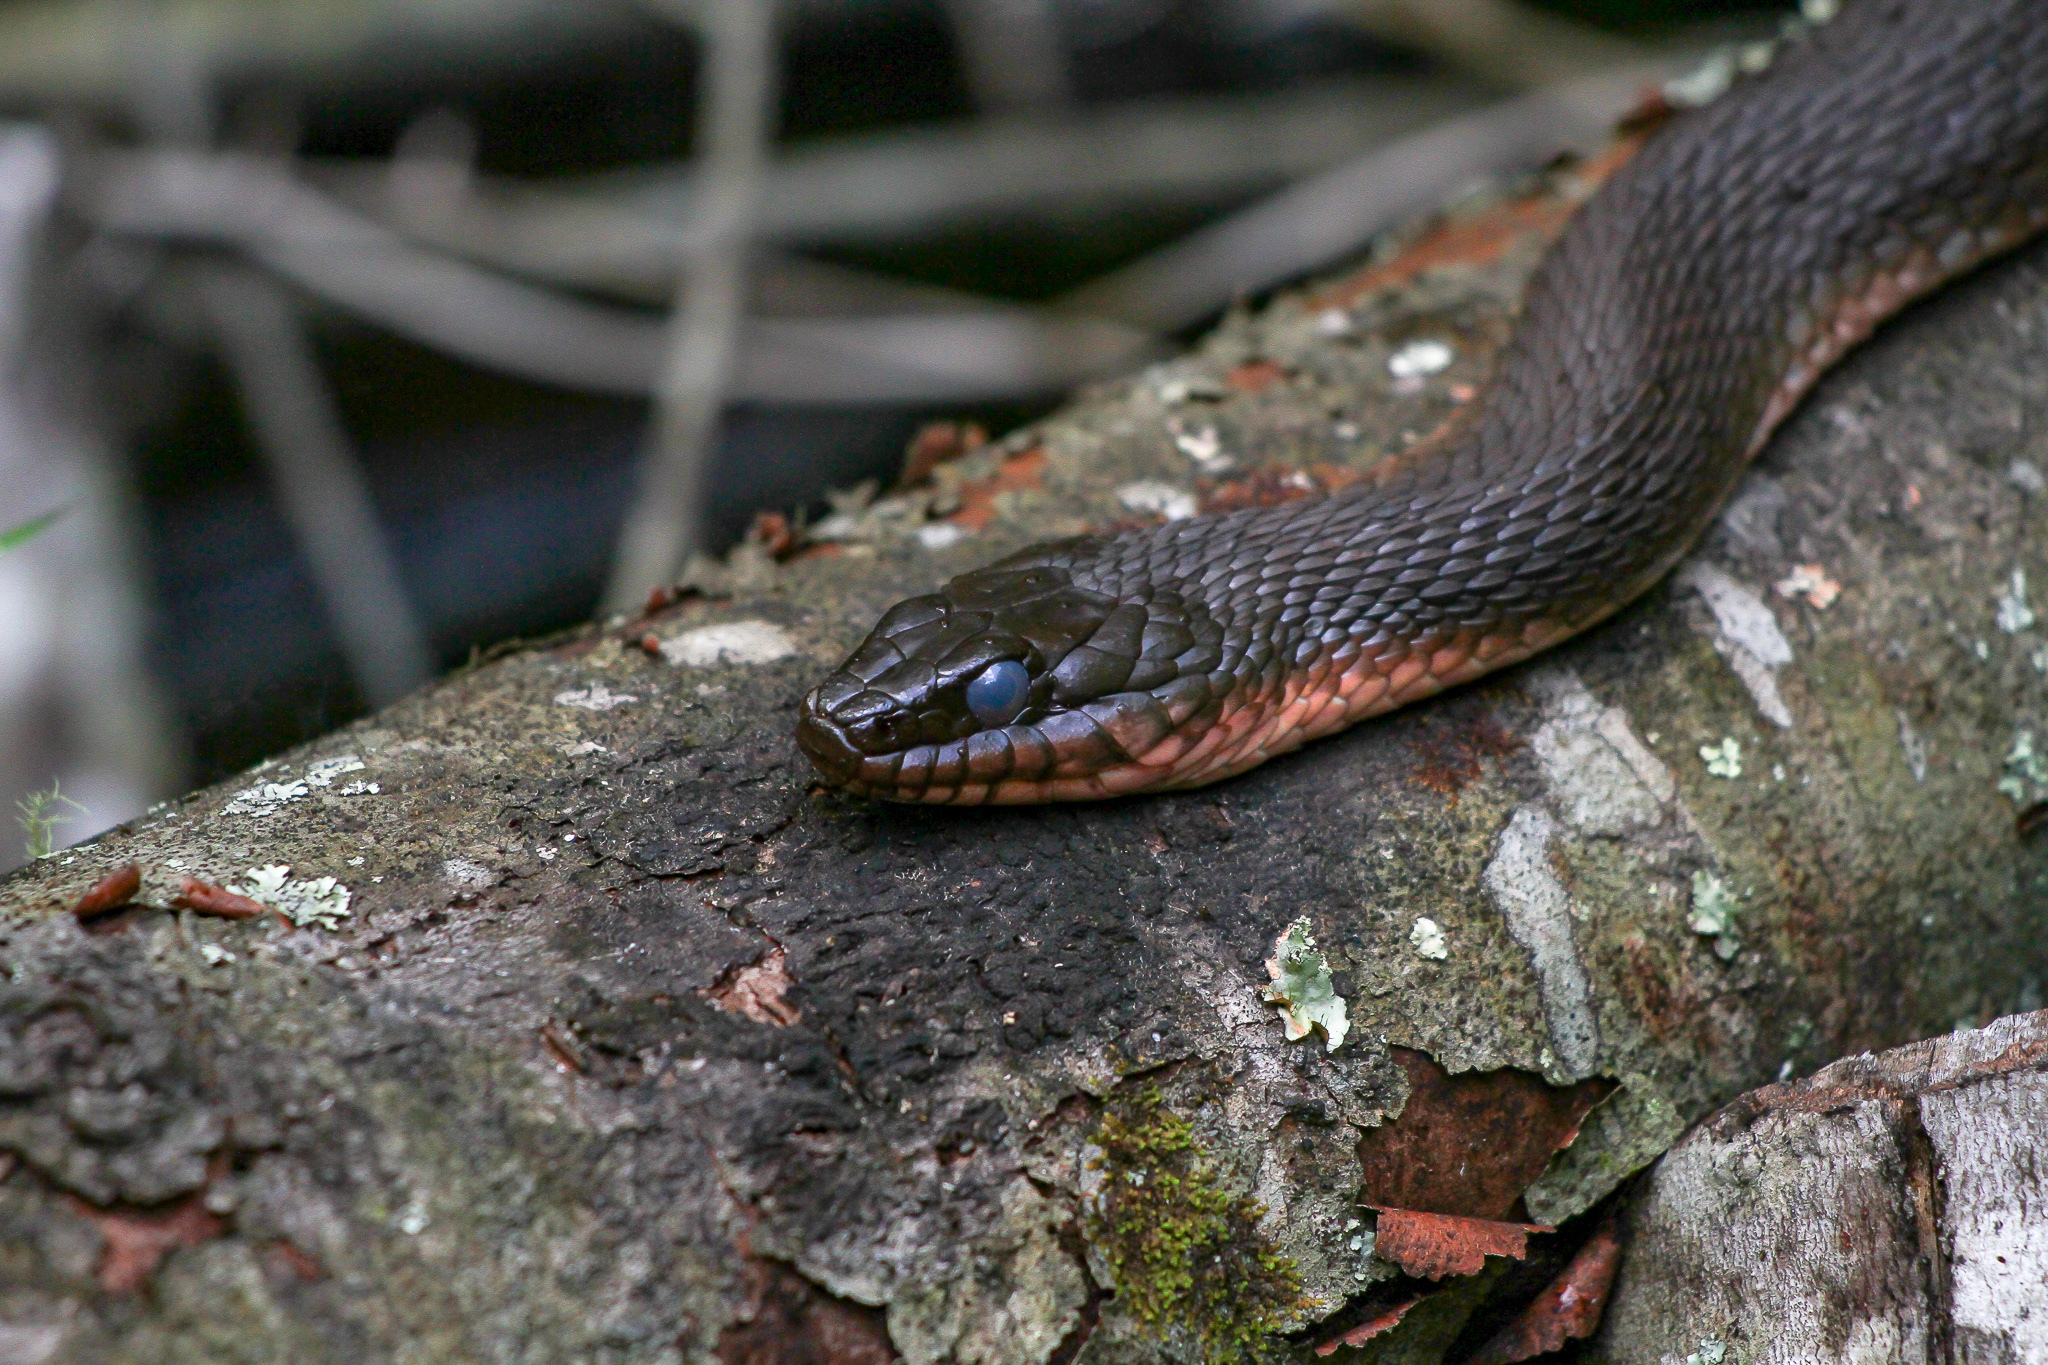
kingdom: Animalia
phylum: Chordata
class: Squamata
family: Colubridae
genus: Nerodia
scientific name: Nerodia erythrogaster
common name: Plainbelly water snake
